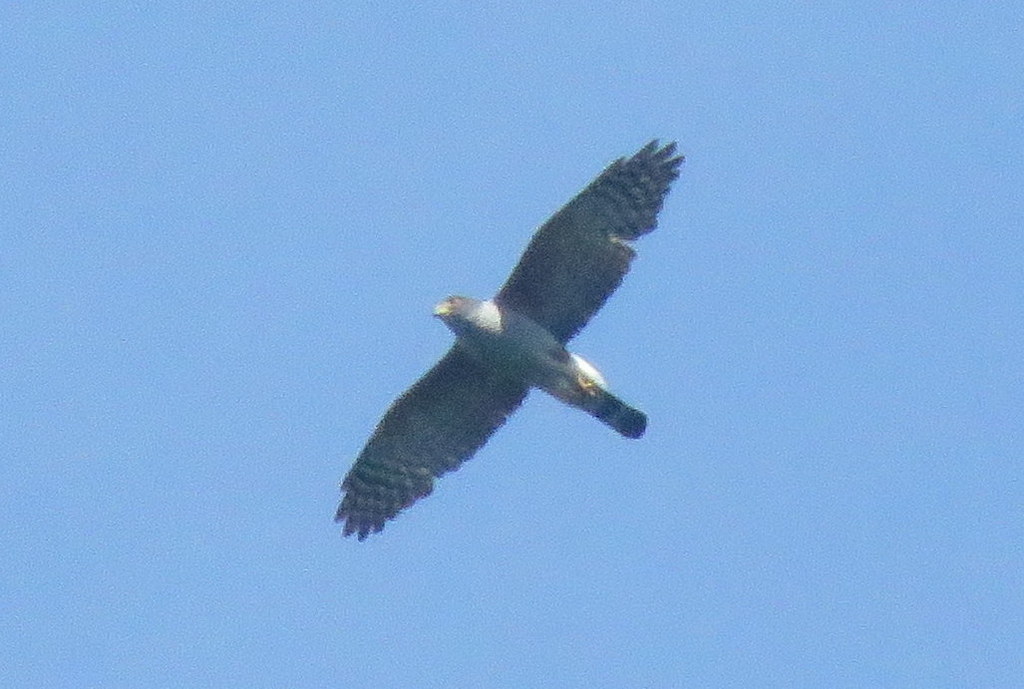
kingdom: Animalia
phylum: Chordata
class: Aves
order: Accipitriformes
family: Accipitridae
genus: Harpagus
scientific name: Harpagus diodon
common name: Rufous-thighed kite
